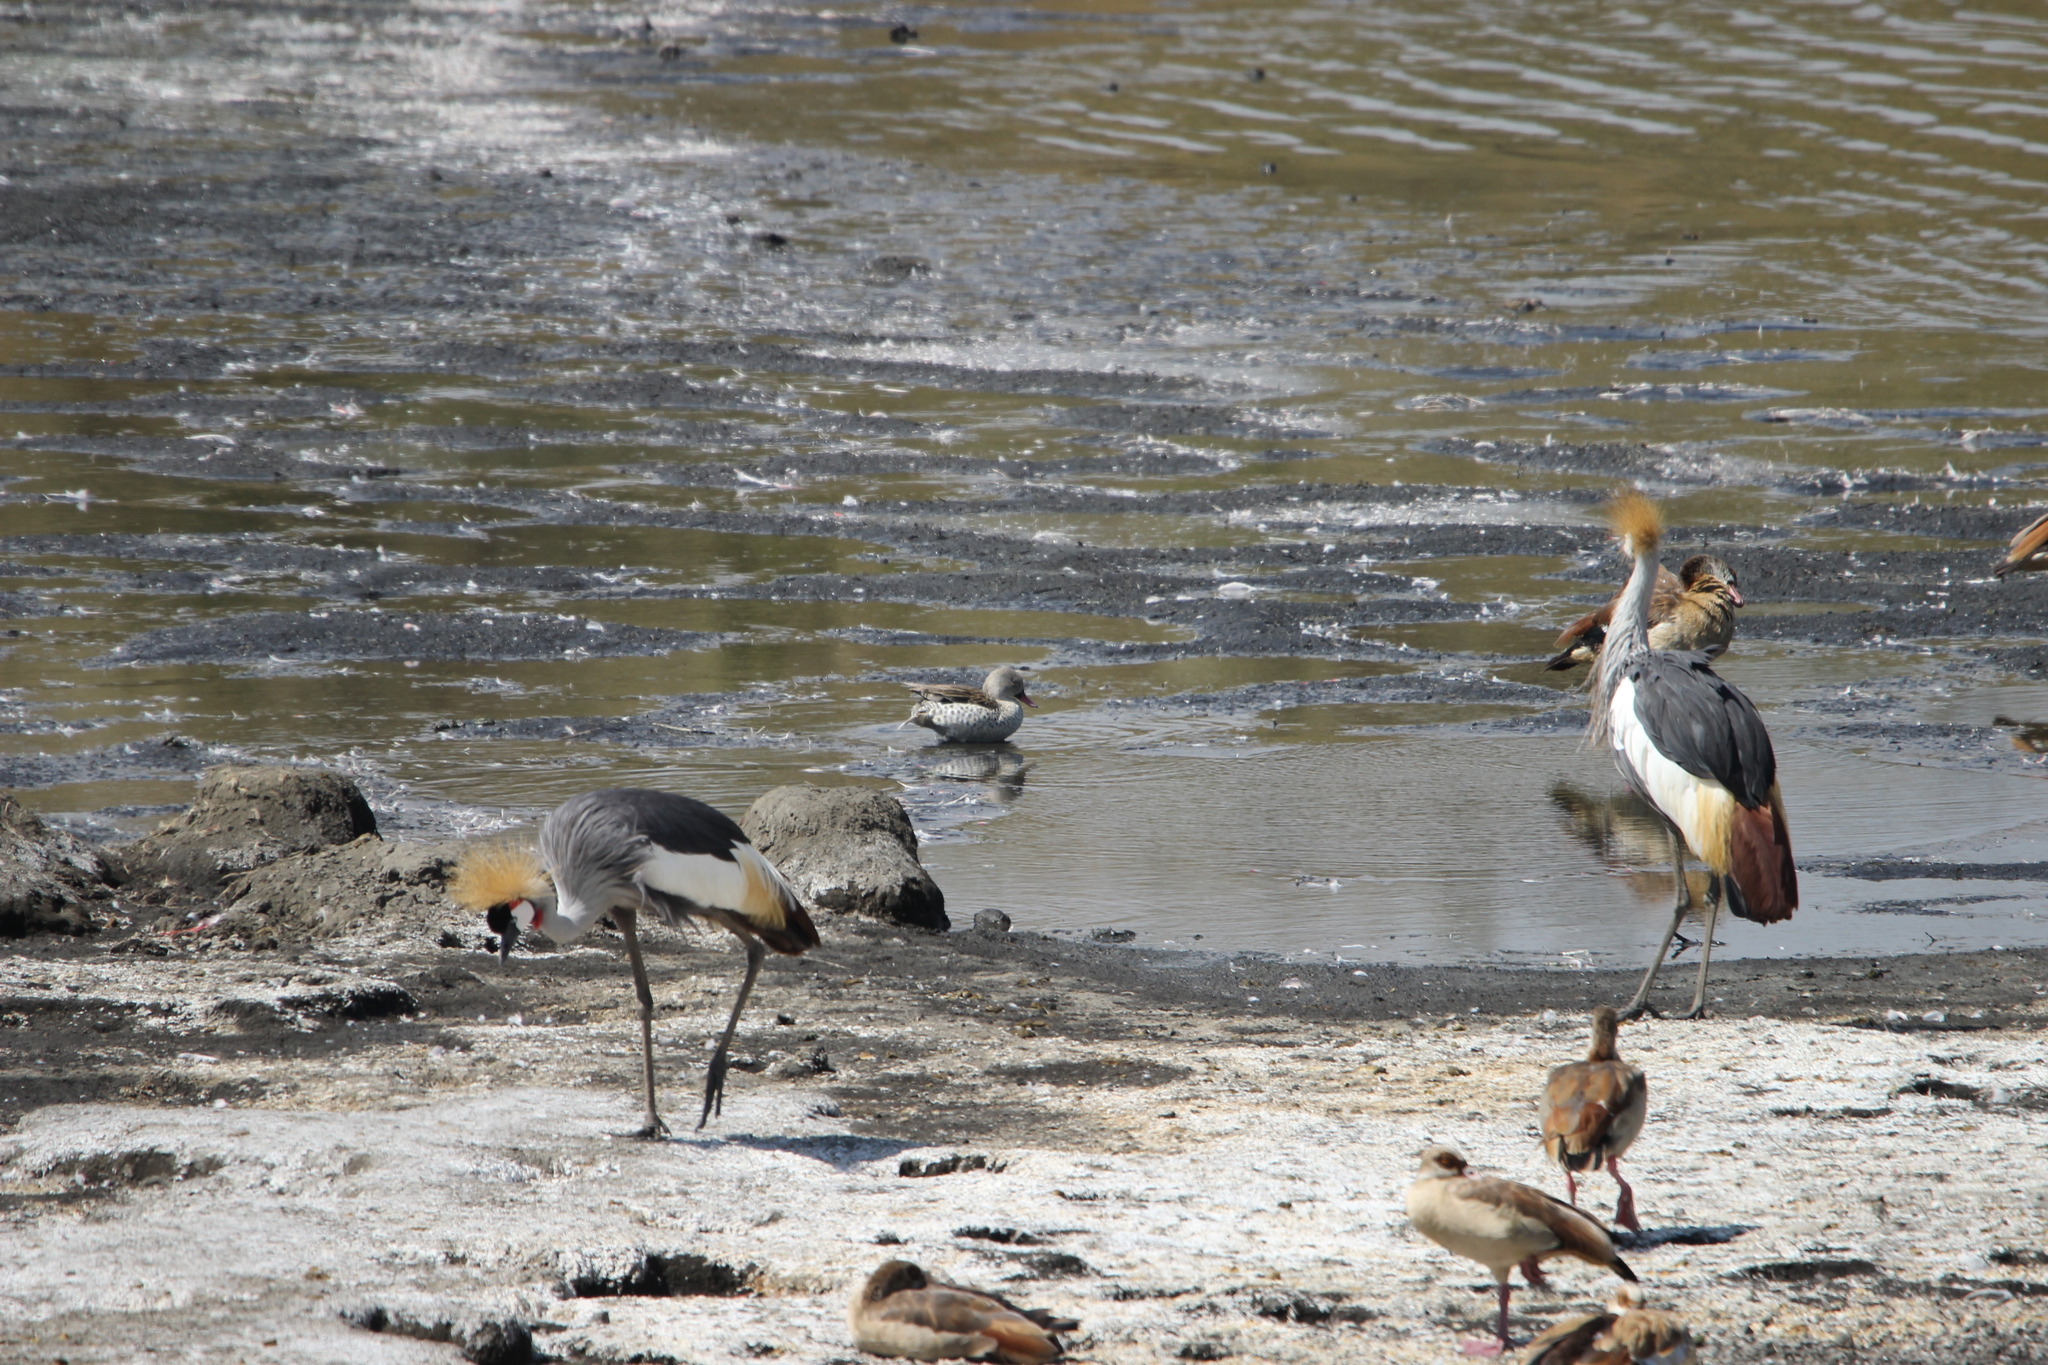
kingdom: Animalia
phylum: Chordata
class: Aves
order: Anseriformes
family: Anatidae
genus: Anas
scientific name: Anas capensis
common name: Cape teal
